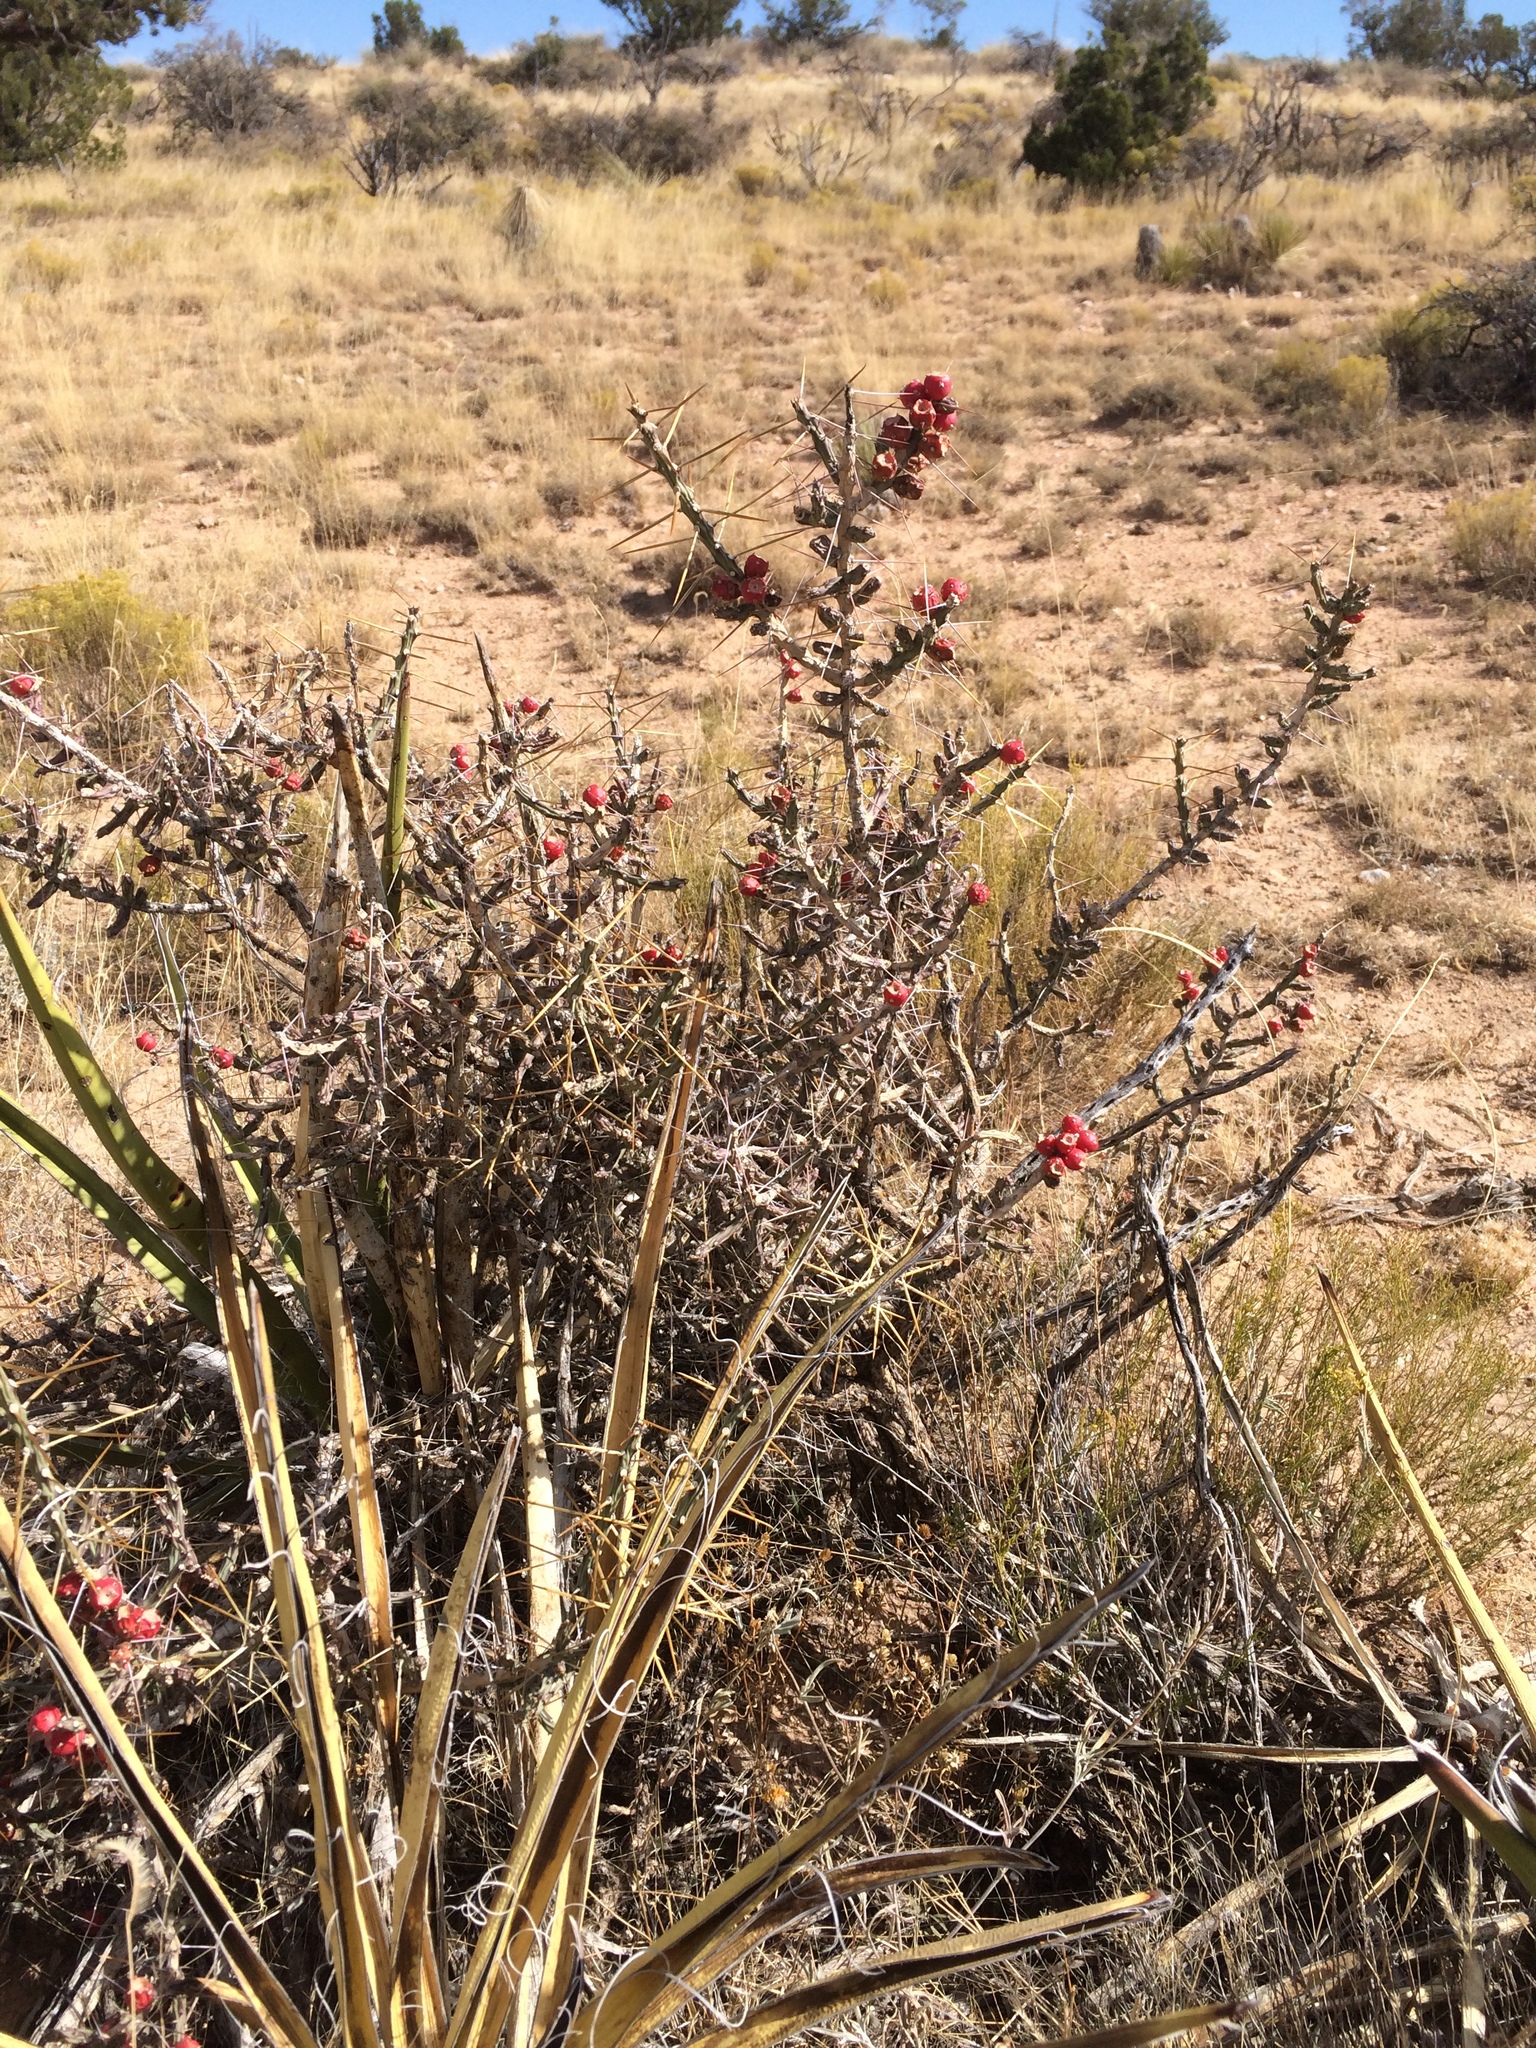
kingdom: Plantae
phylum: Tracheophyta
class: Magnoliopsida
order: Caryophyllales
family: Cactaceae
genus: Cylindropuntia
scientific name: Cylindropuntia leptocaulis
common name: Christmas cactus
